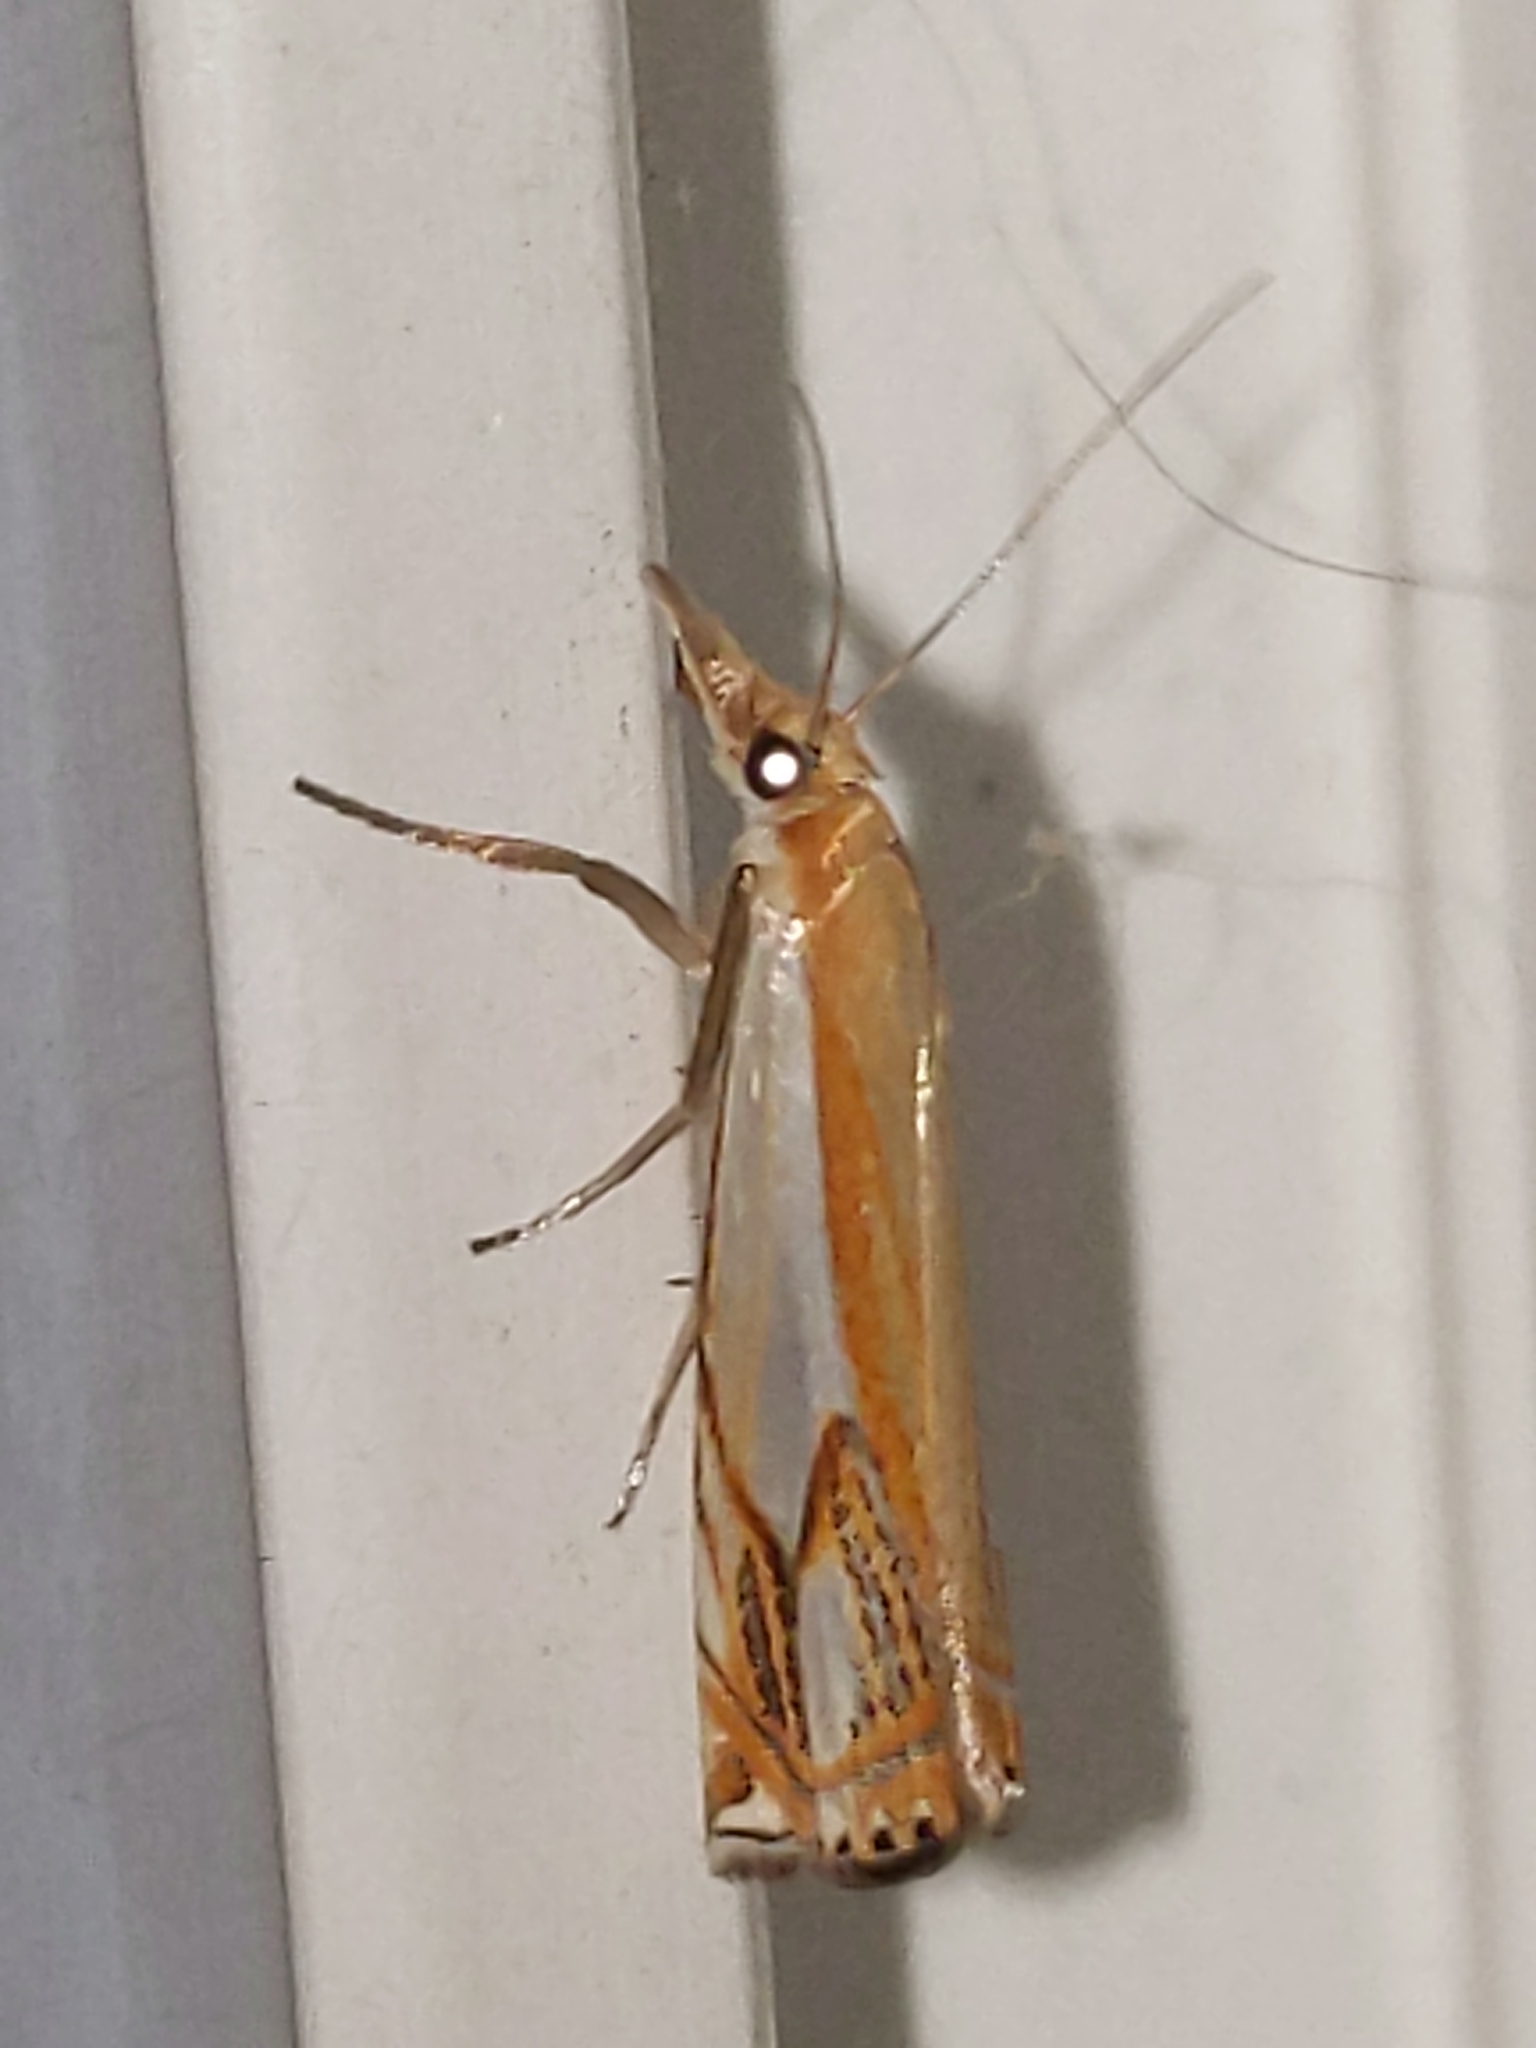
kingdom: Animalia
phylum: Arthropoda
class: Insecta
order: Lepidoptera
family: Crambidae
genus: Crambus
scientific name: Crambus agitatellus
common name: Double-banded grass-veneer
